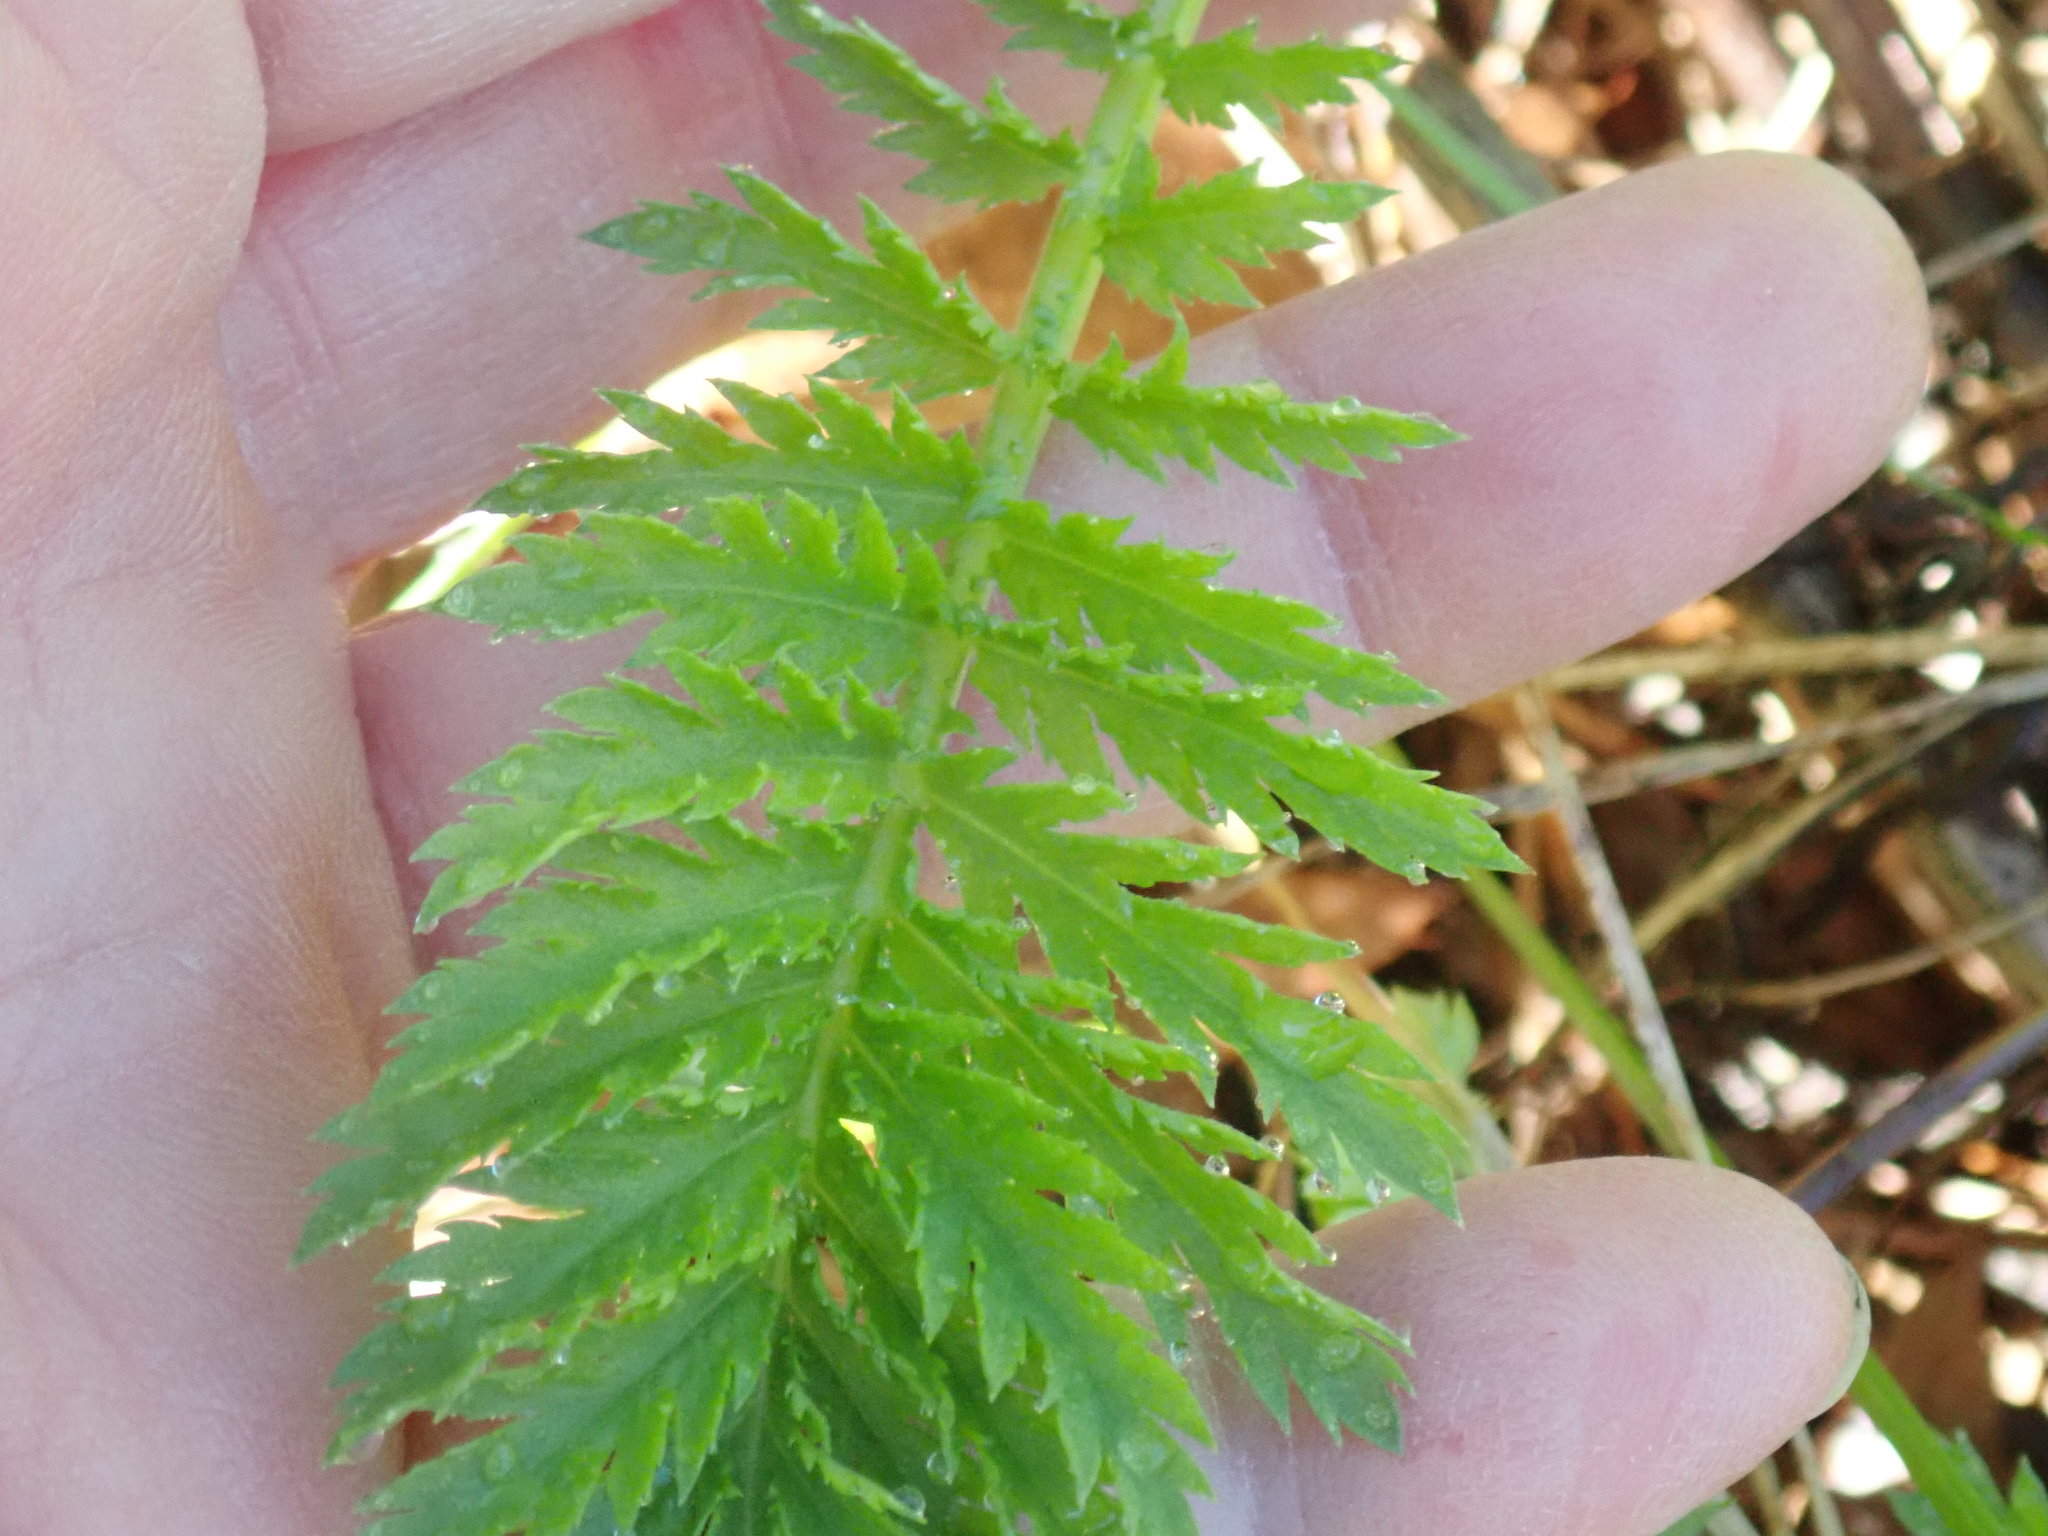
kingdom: Plantae
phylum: Tracheophyta
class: Magnoliopsida
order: Asterales
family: Asteraceae
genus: Tanacetum
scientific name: Tanacetum vulgare
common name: Common tansy
